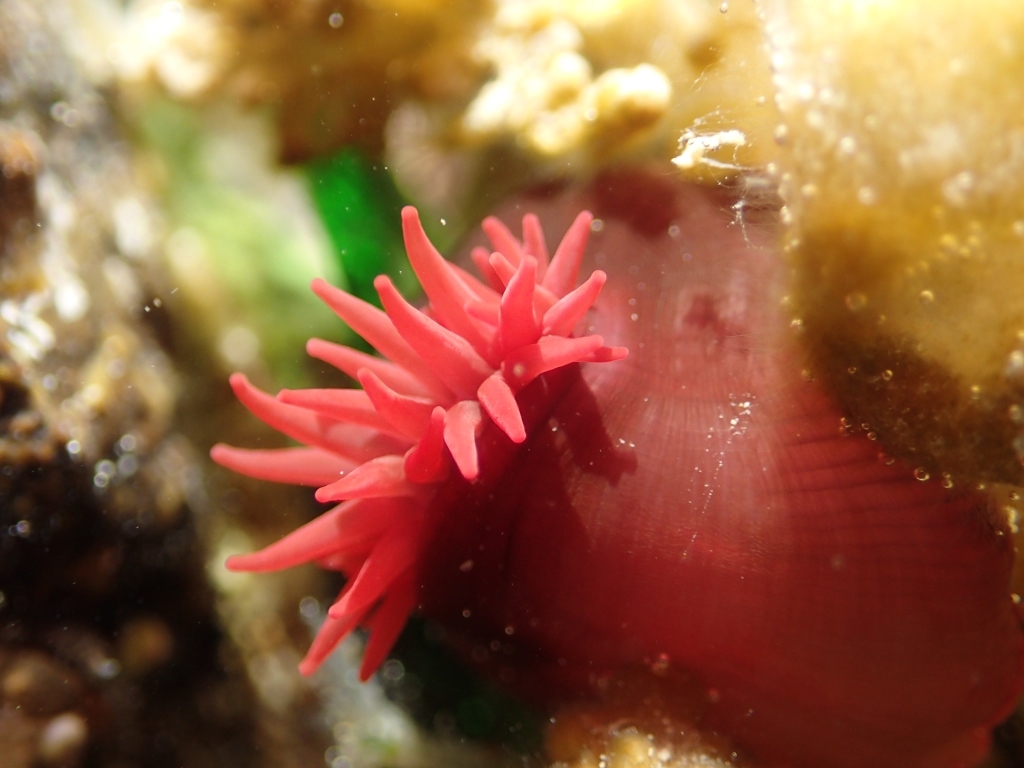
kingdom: Animalia
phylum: Cnidaria
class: Anthozoa
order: Actiniaria
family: Actiniidae
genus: Actinia
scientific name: Actinia tenebrosa
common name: Waratah anemone
